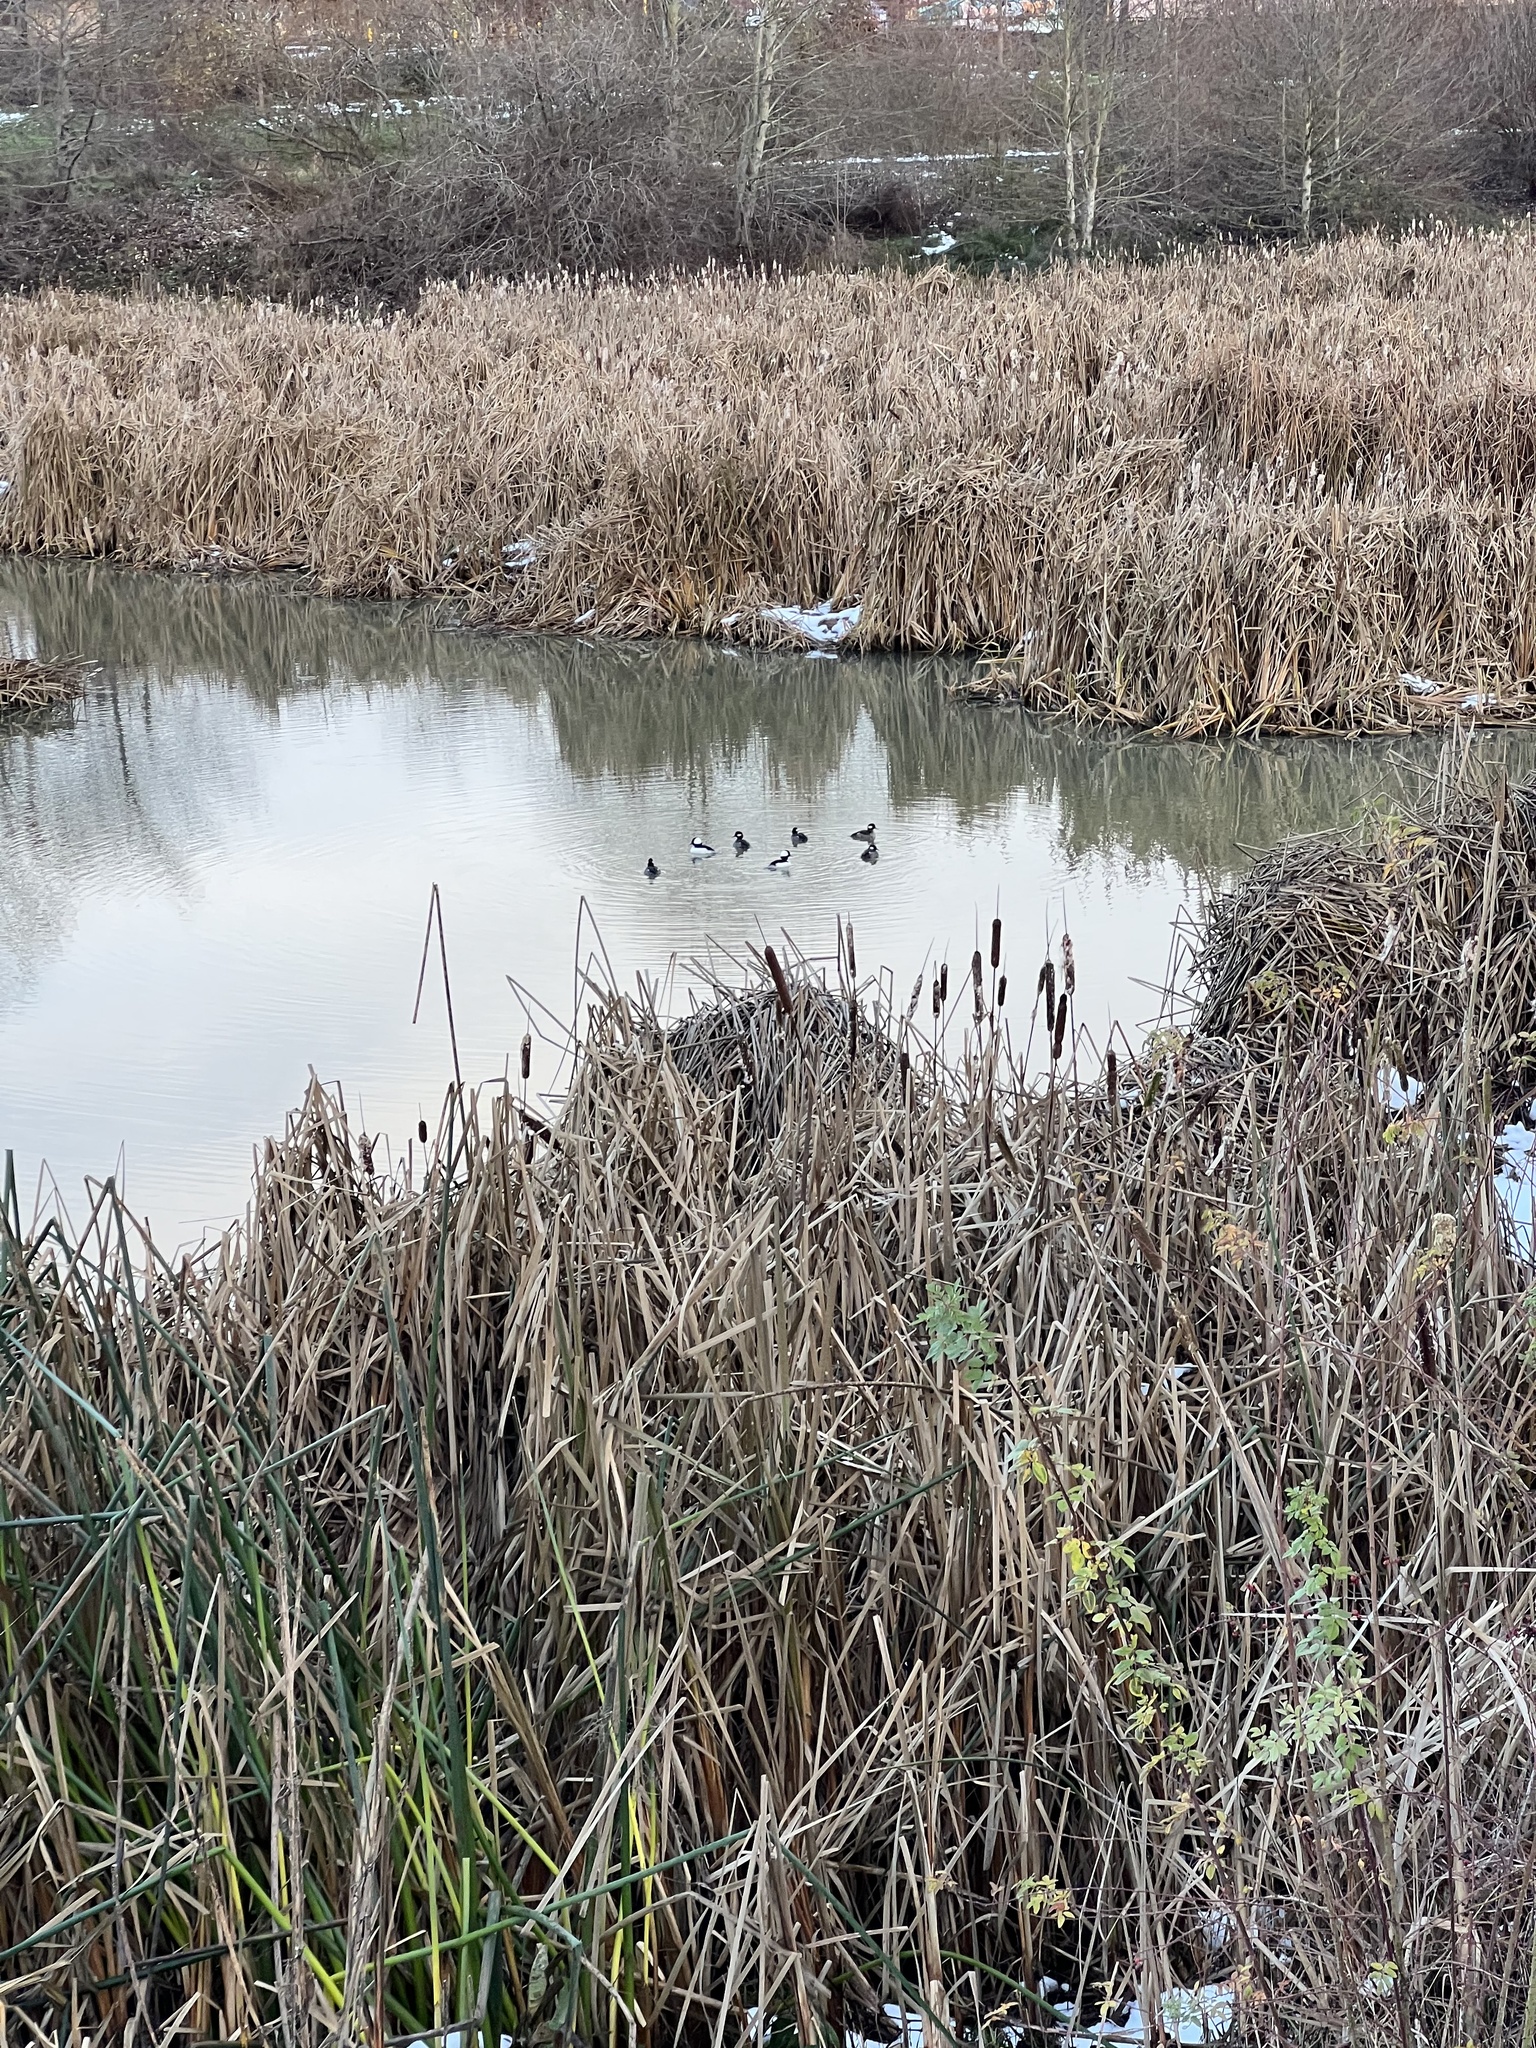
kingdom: Animalia
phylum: Chordata
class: Aves
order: Anseriformes
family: Anatidae
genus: Bucephala
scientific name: Bucephala albeola
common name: Bufflehead
